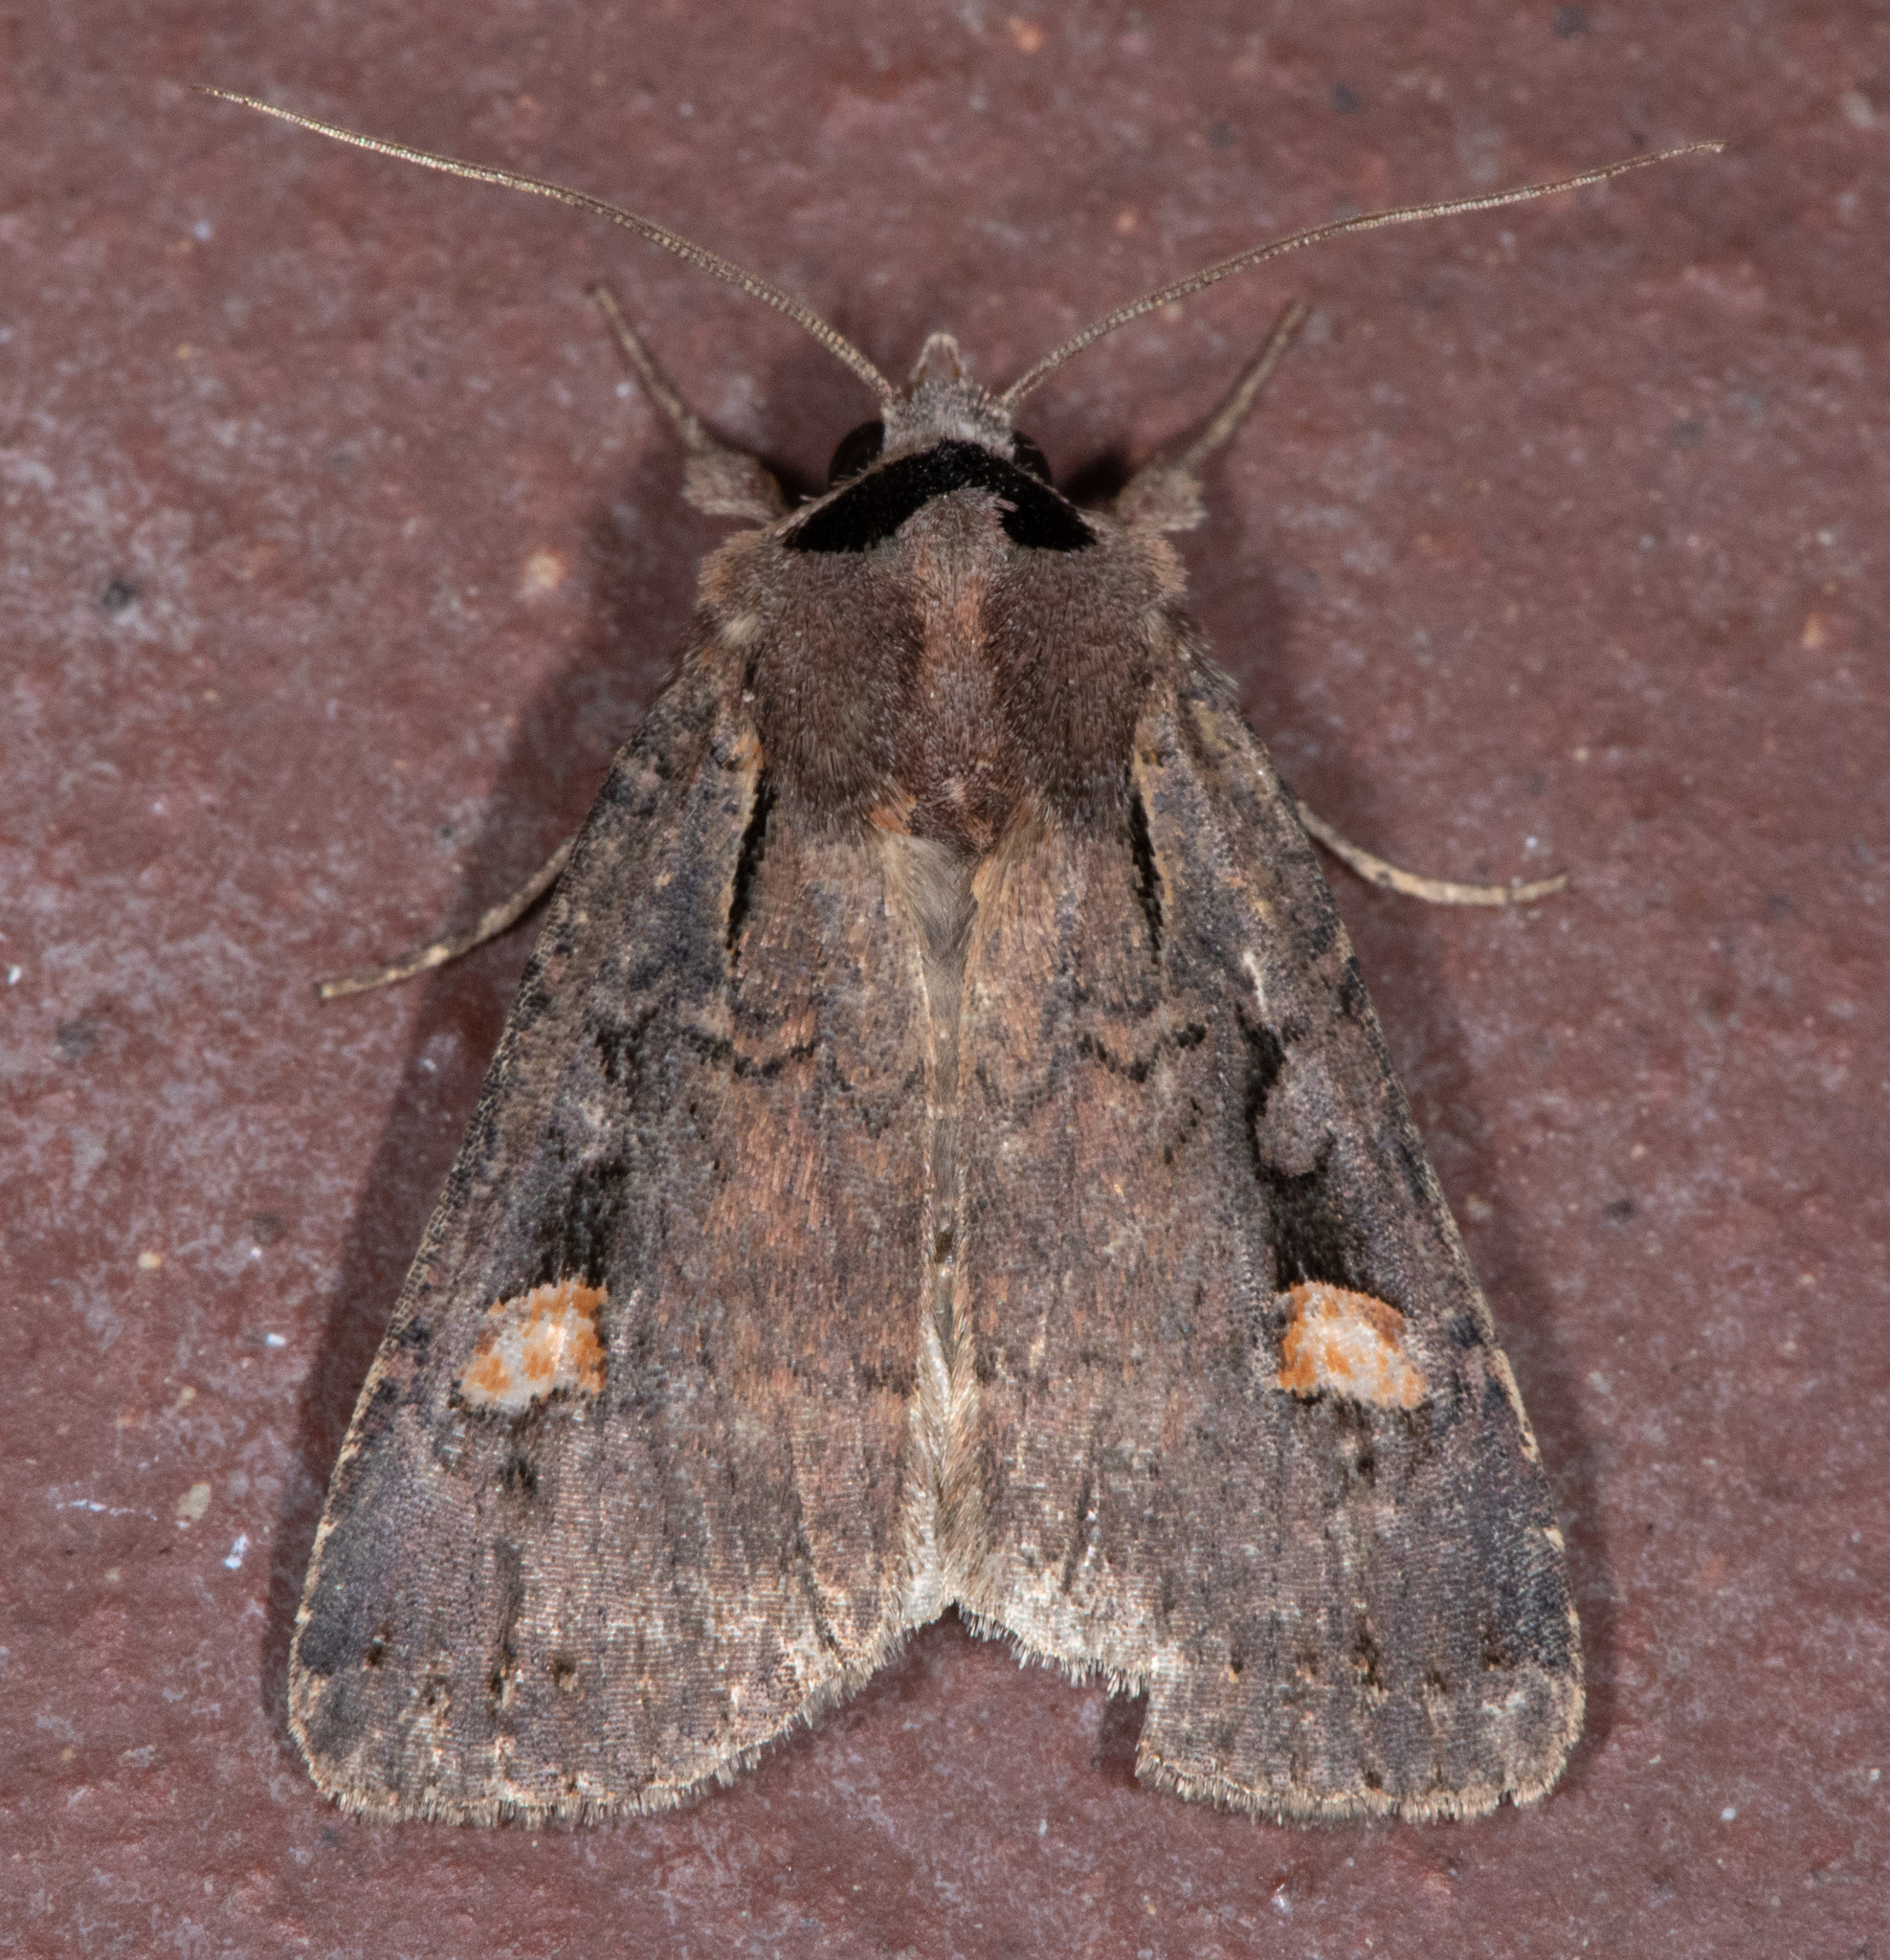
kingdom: Animalia
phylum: Arthropoda
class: Insecta
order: Lepidoptera
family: Noctuidae
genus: Adelphagrotis
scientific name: Adelphagrotis indeterminata
